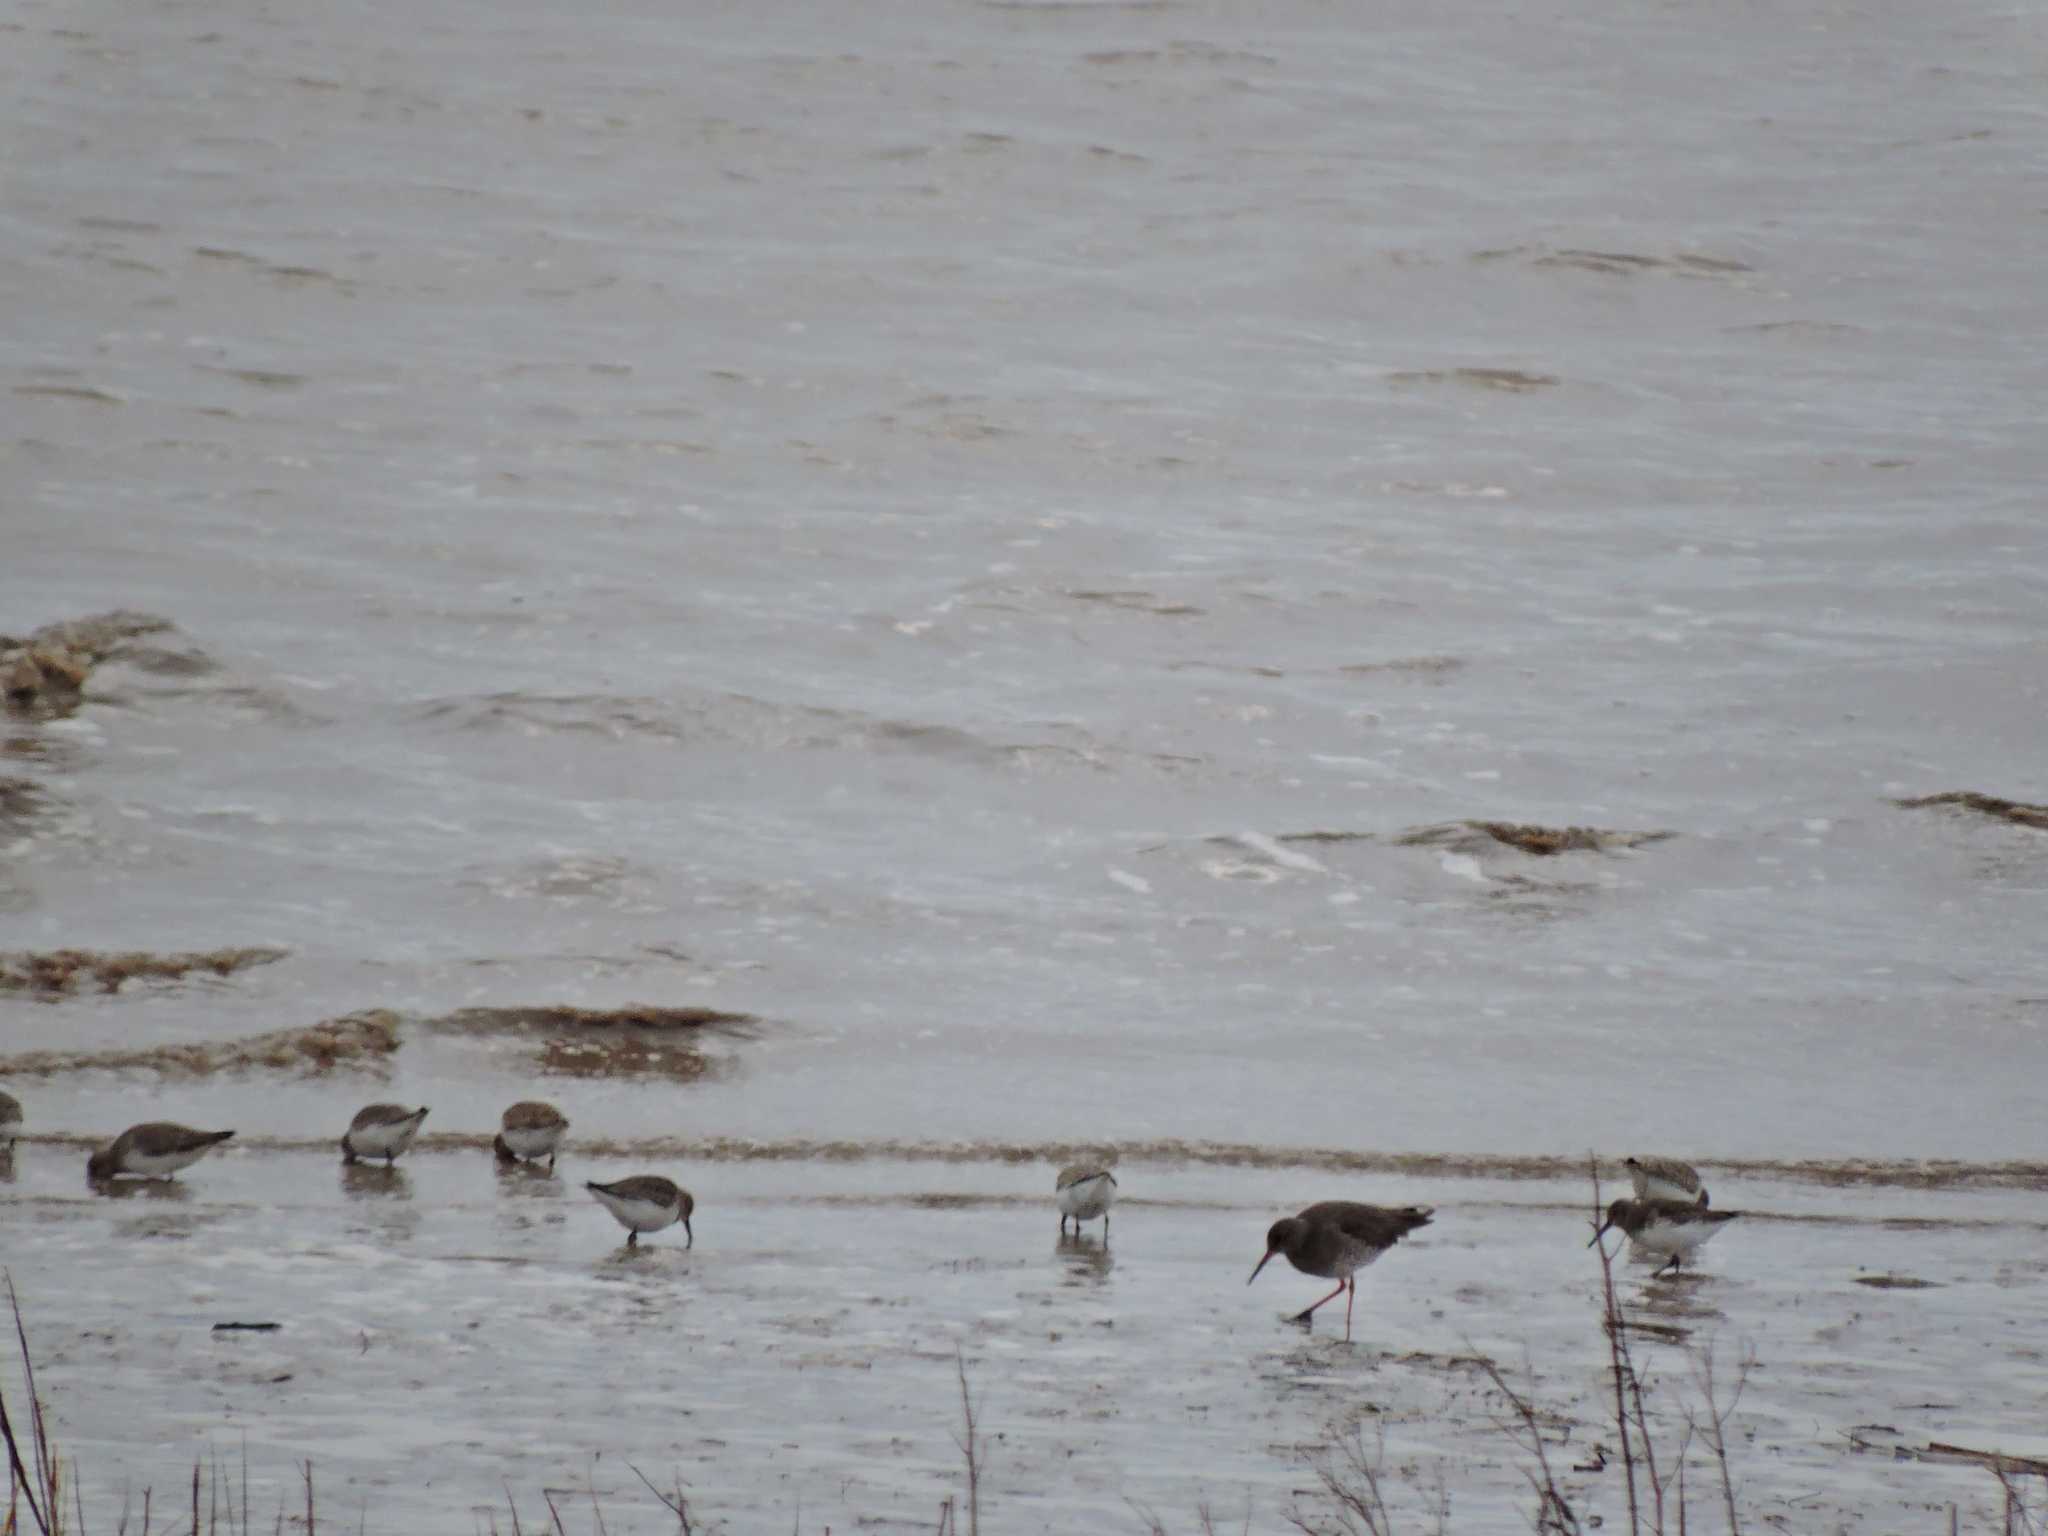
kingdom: Animalia
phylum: Chordata
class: Aves
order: Charadriiformes
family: Scolopacidae
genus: Calidris
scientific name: Calidris alpina
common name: Dunlin
